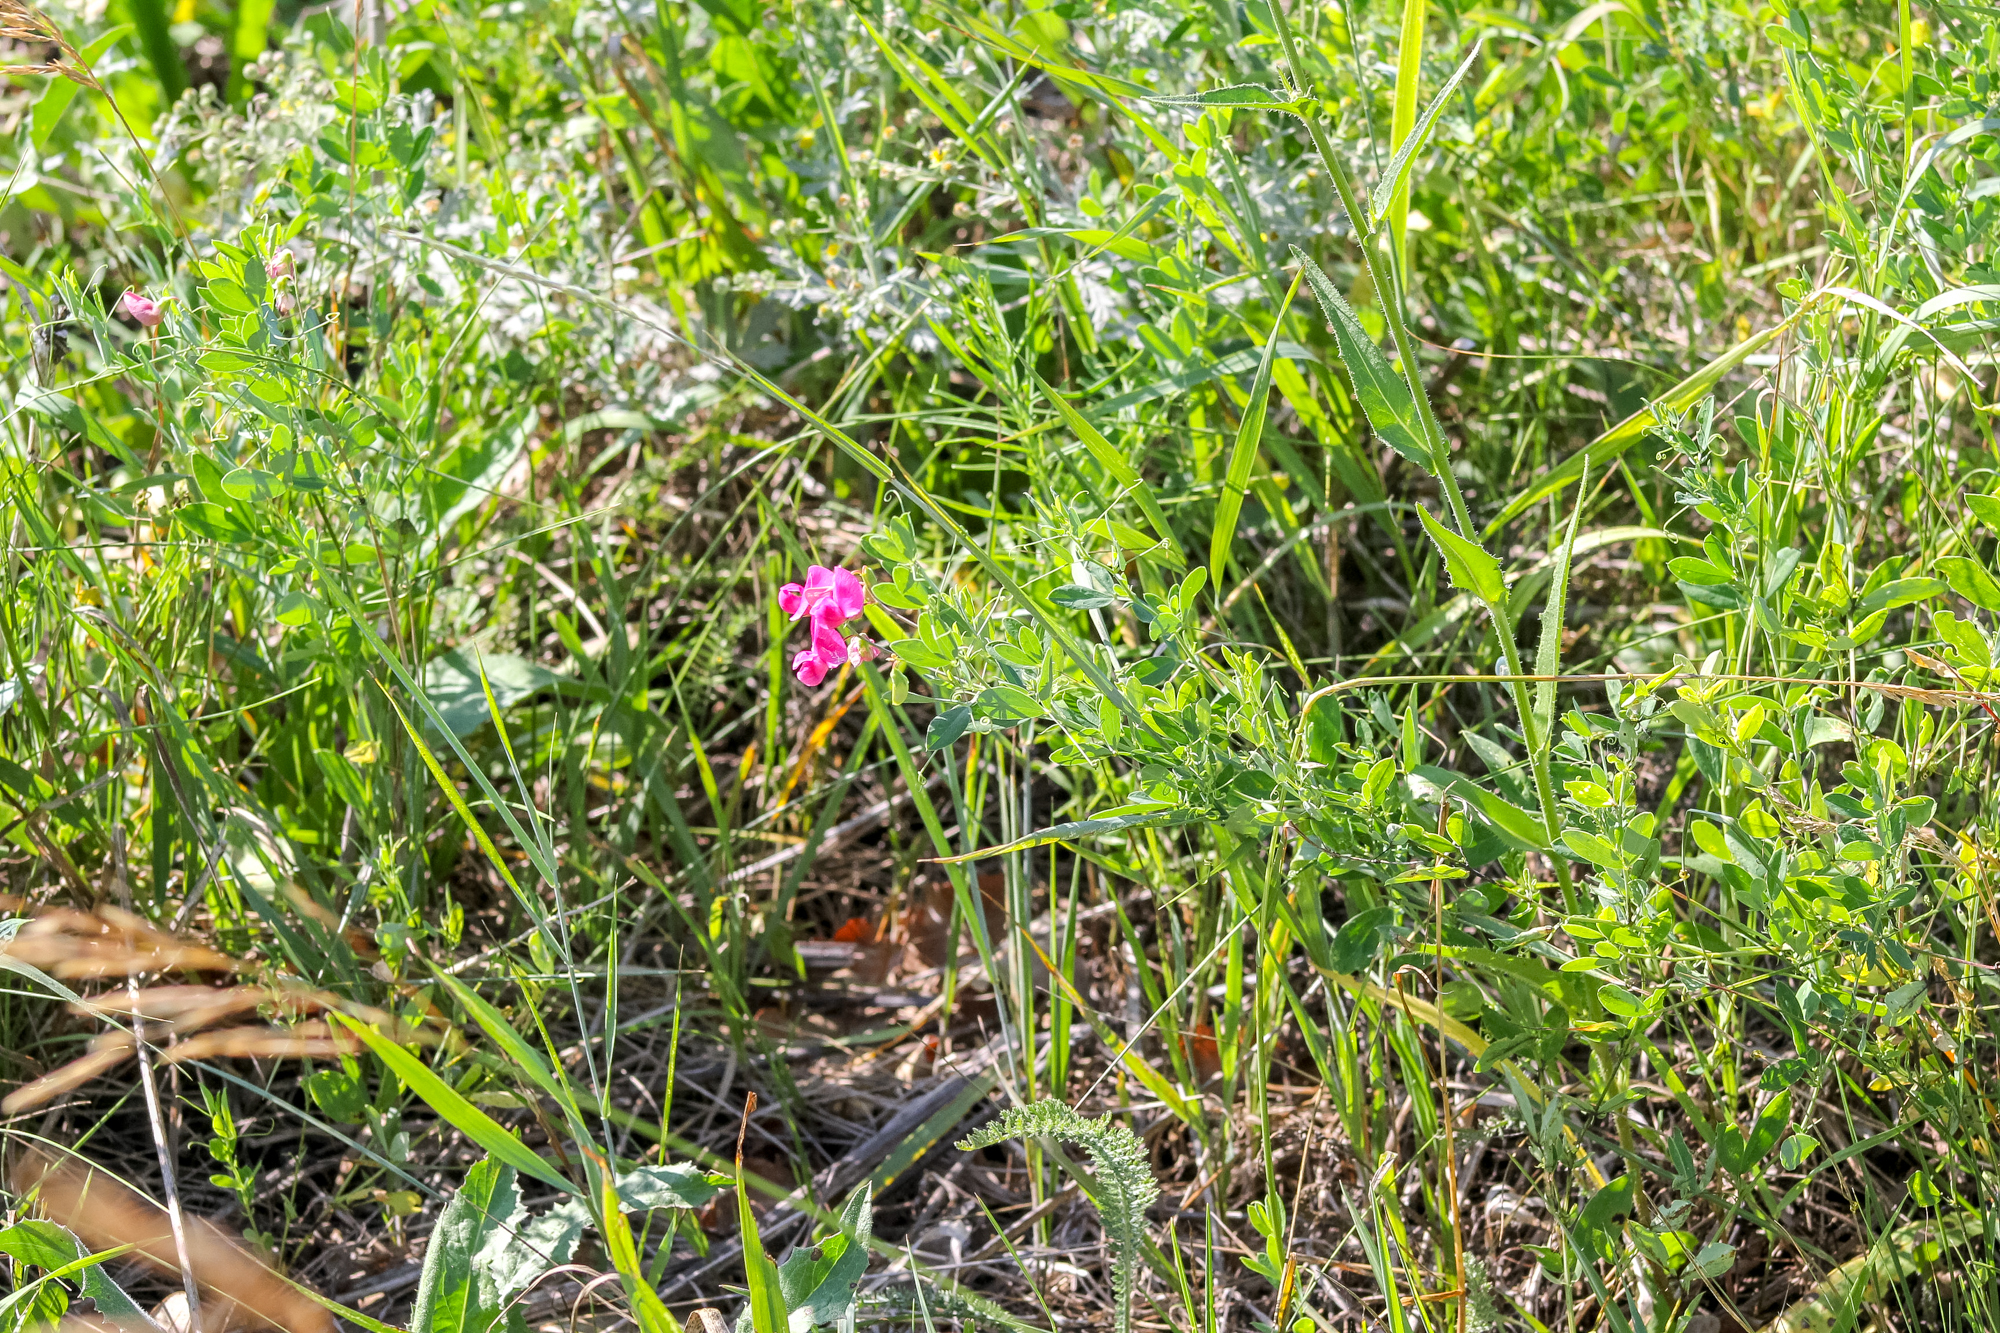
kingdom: Plantae
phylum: Tracheophyta
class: Magnoliopsida
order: Fabales
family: Fabaceae
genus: Lathyrus
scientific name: Lathyrus tuberosus
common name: Tuberous pea
